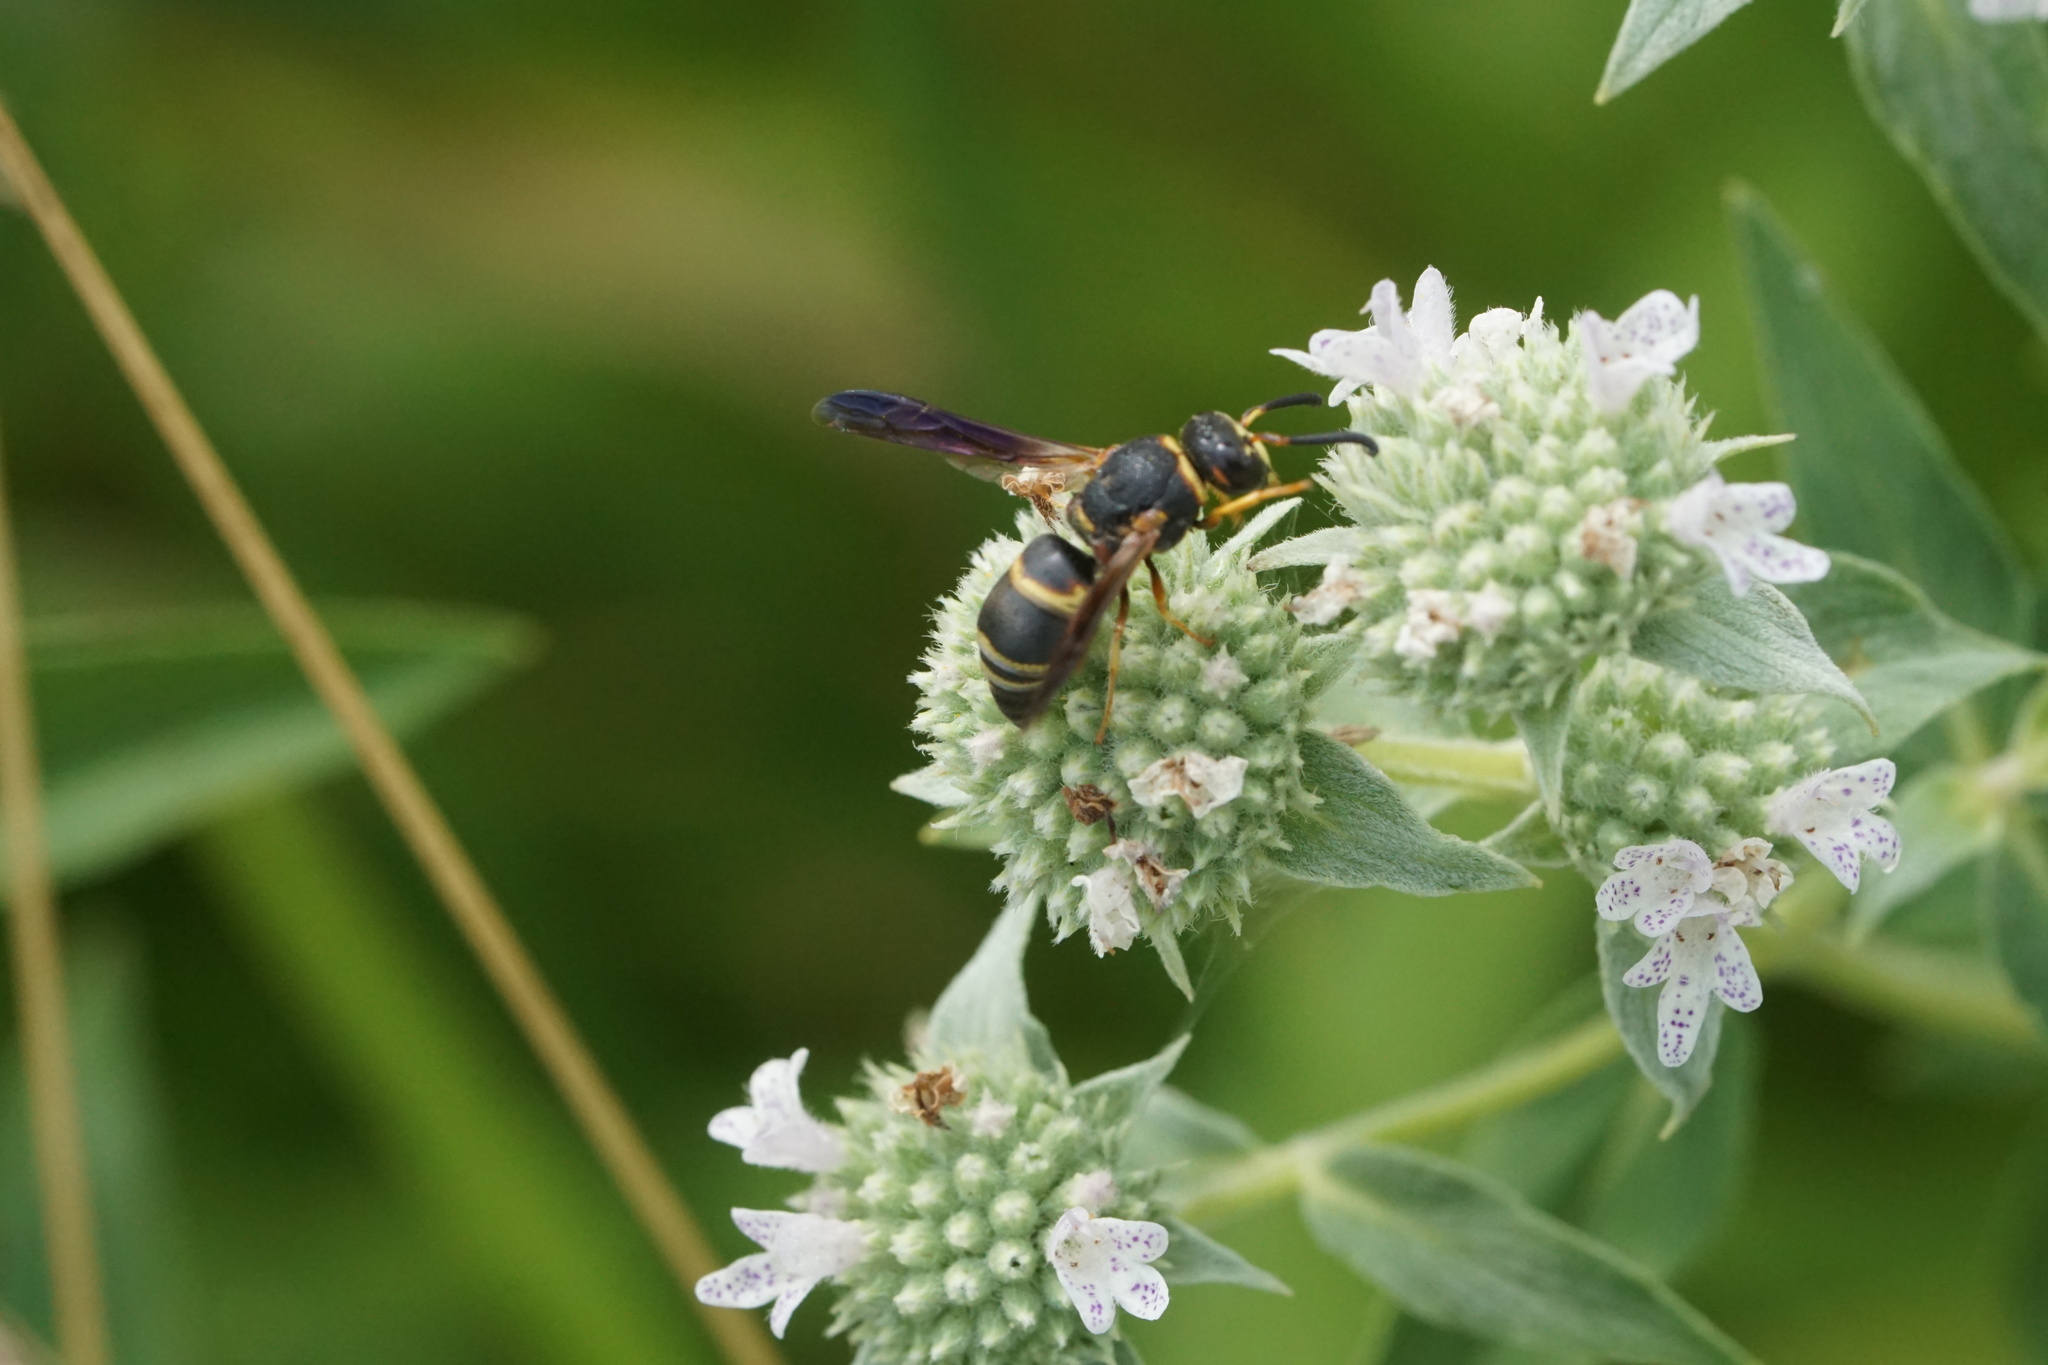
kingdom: Animalia
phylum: Arthropoda
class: Insecta
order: Hymenoptera
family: Eumenidae
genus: Euodynerus
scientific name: Euodynerus hidalgo
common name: Wasp
